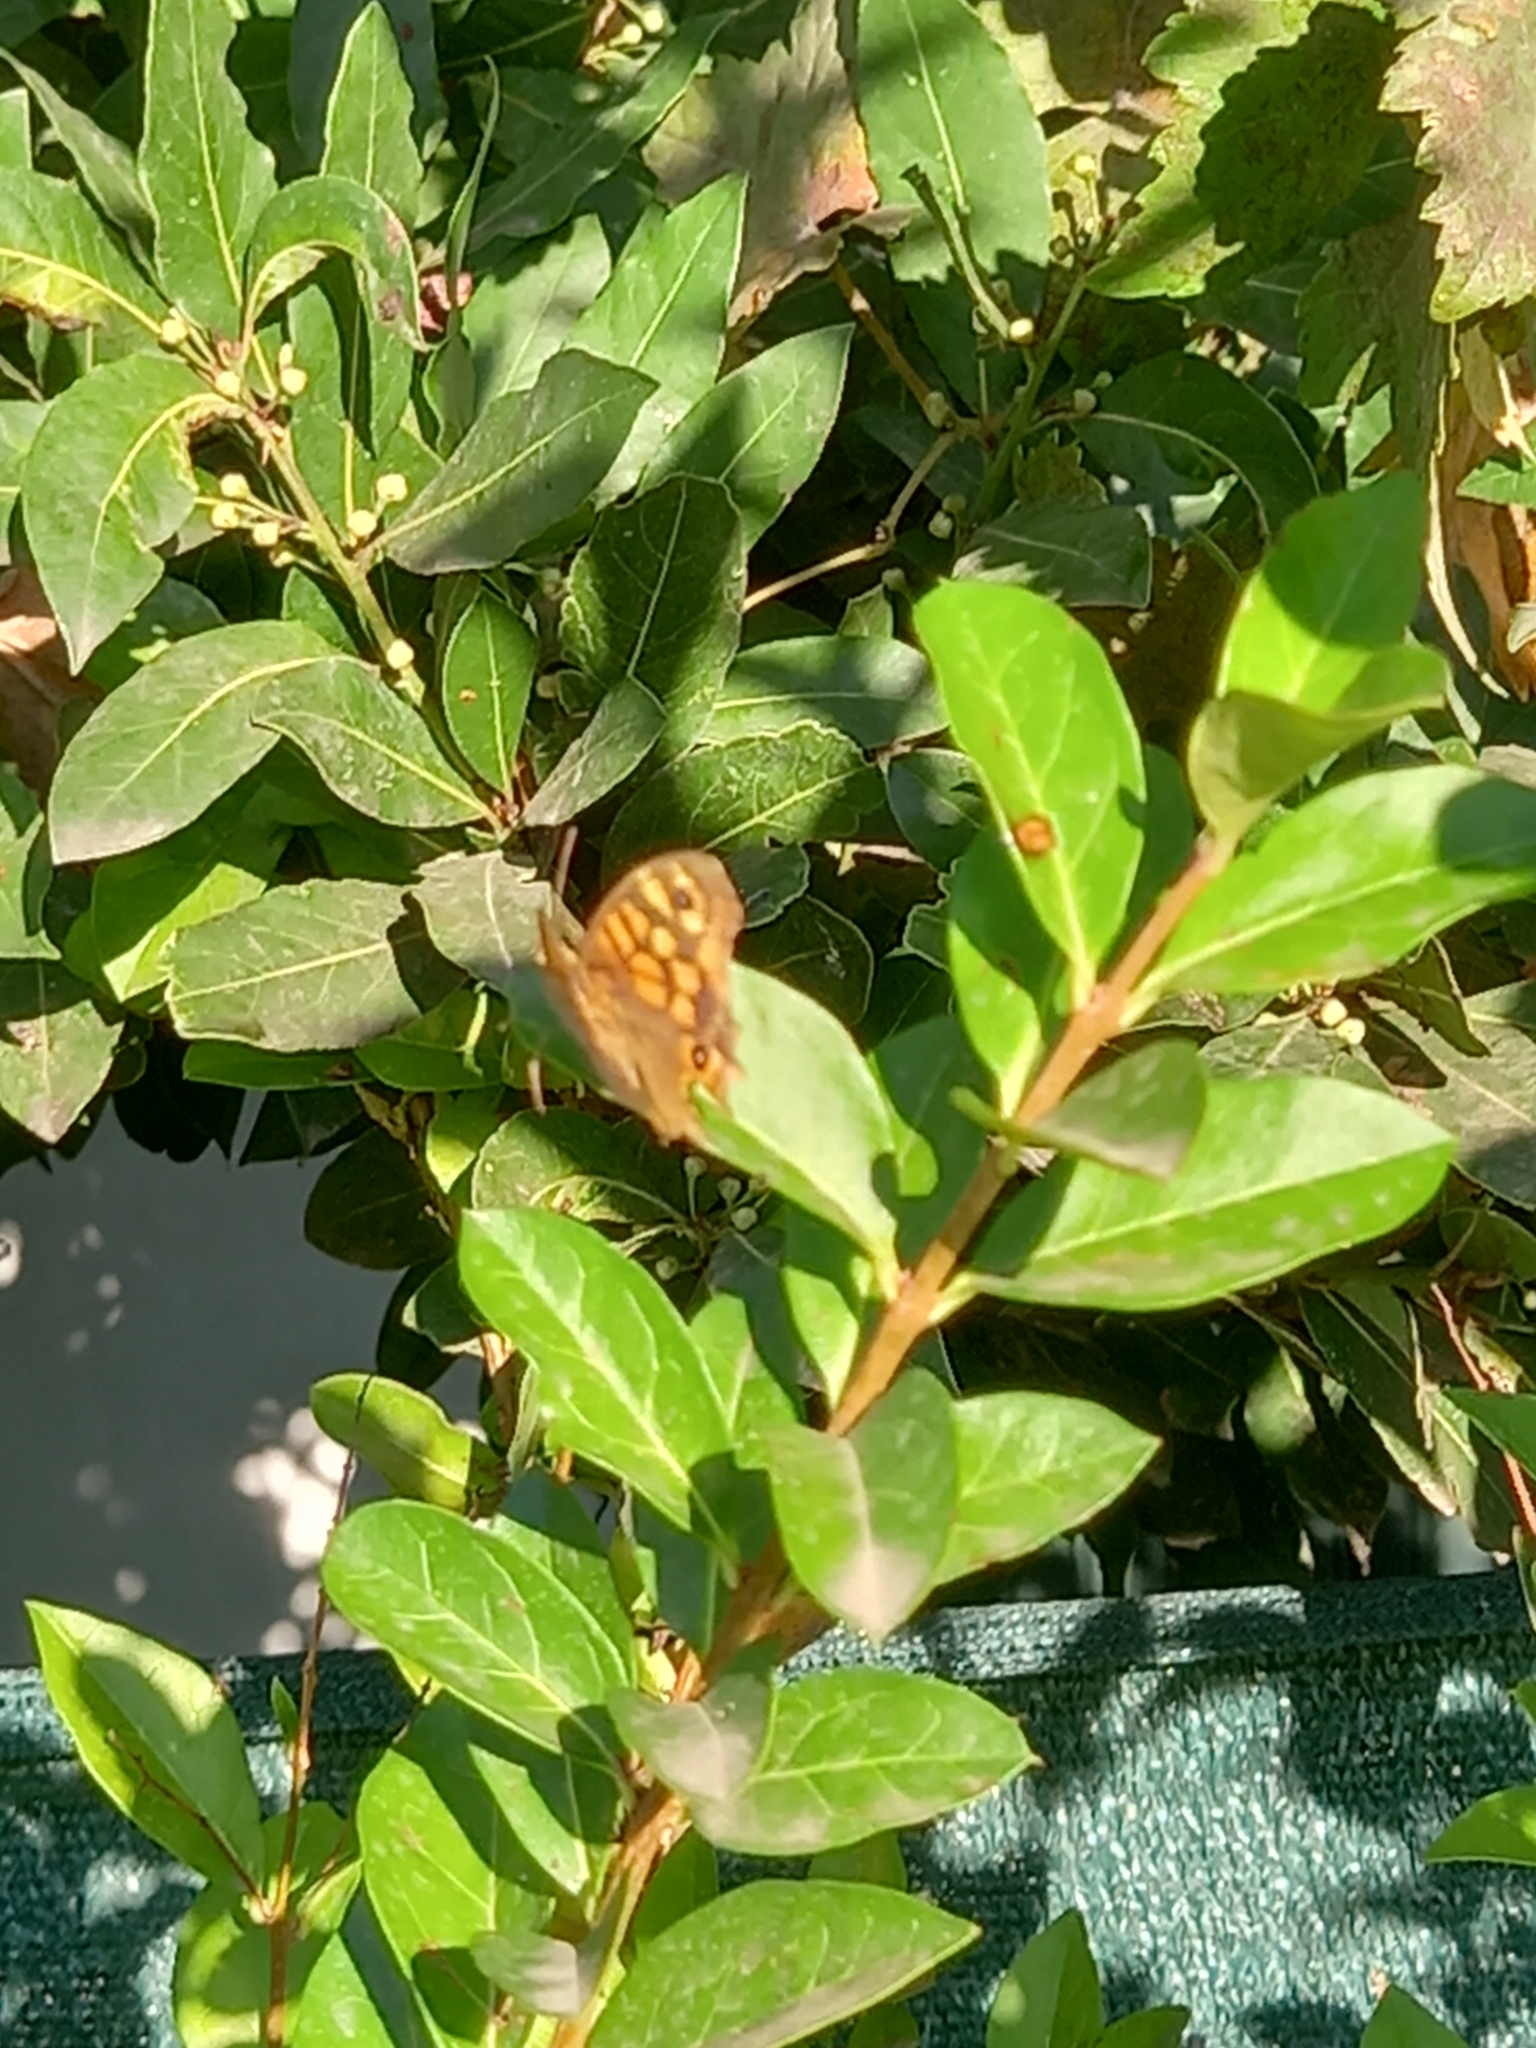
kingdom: Animalia
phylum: Arthropoda
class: Insecta
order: Lepidoptera
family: Nymphalidae
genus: Pararge
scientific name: Pararge aegeria
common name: Speckled wood
